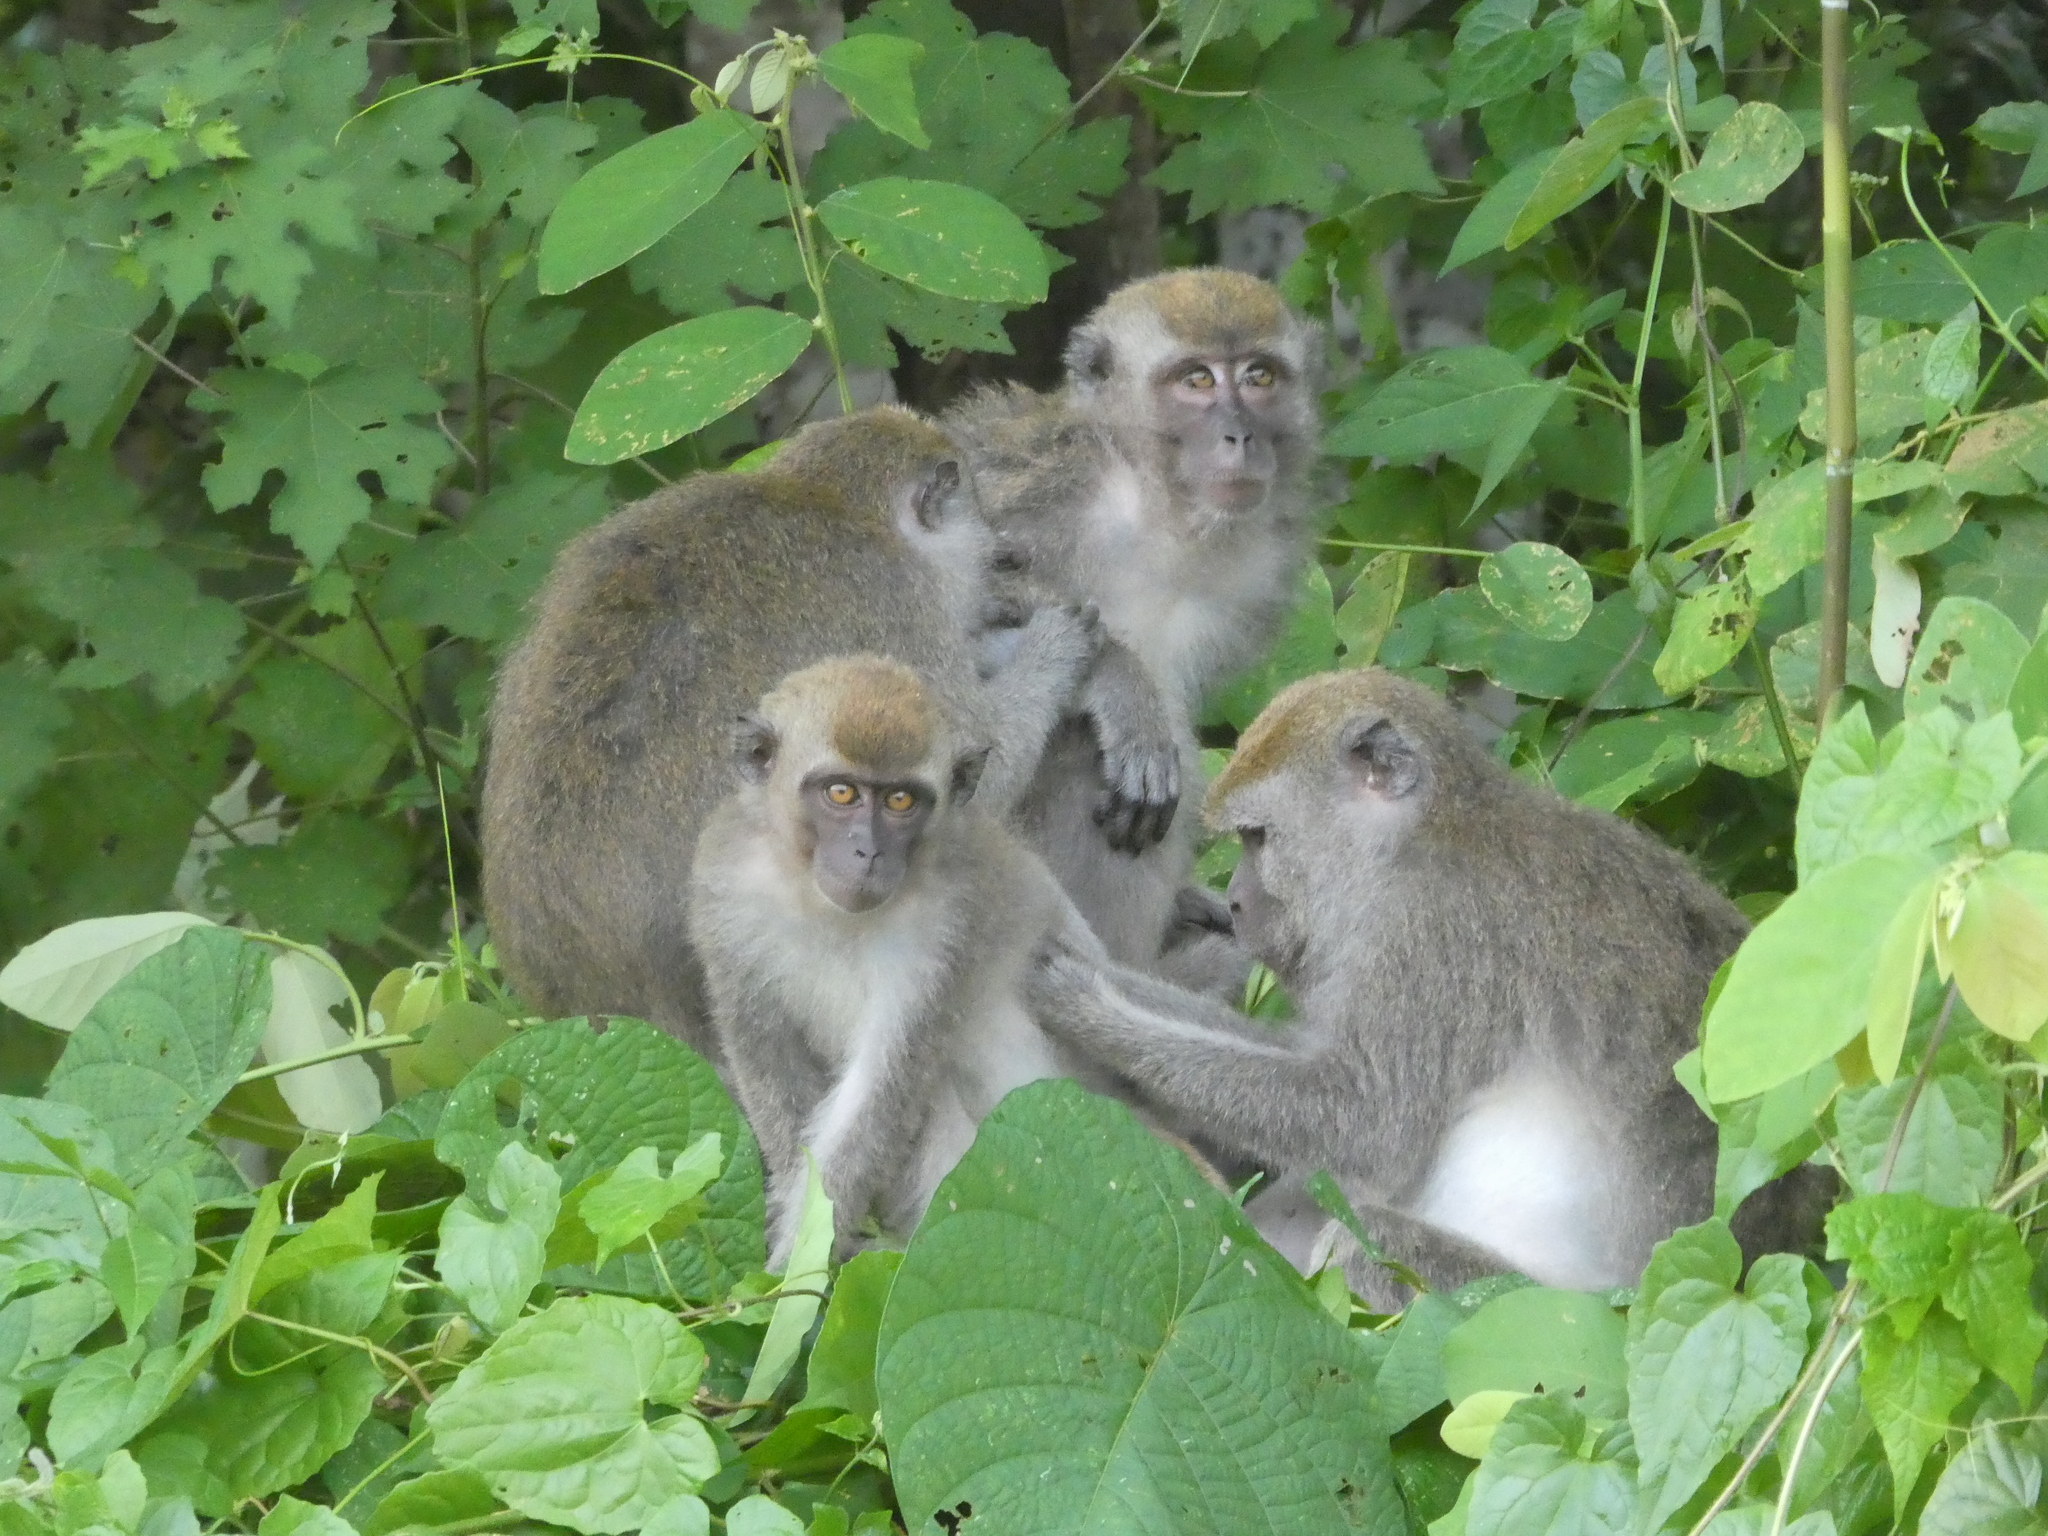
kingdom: Animalia
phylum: Chordata
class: Mammalia
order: Primates
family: Cercopithecidae
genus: Macaca
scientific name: Macaca fascicularis
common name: Crab-eating macaque
